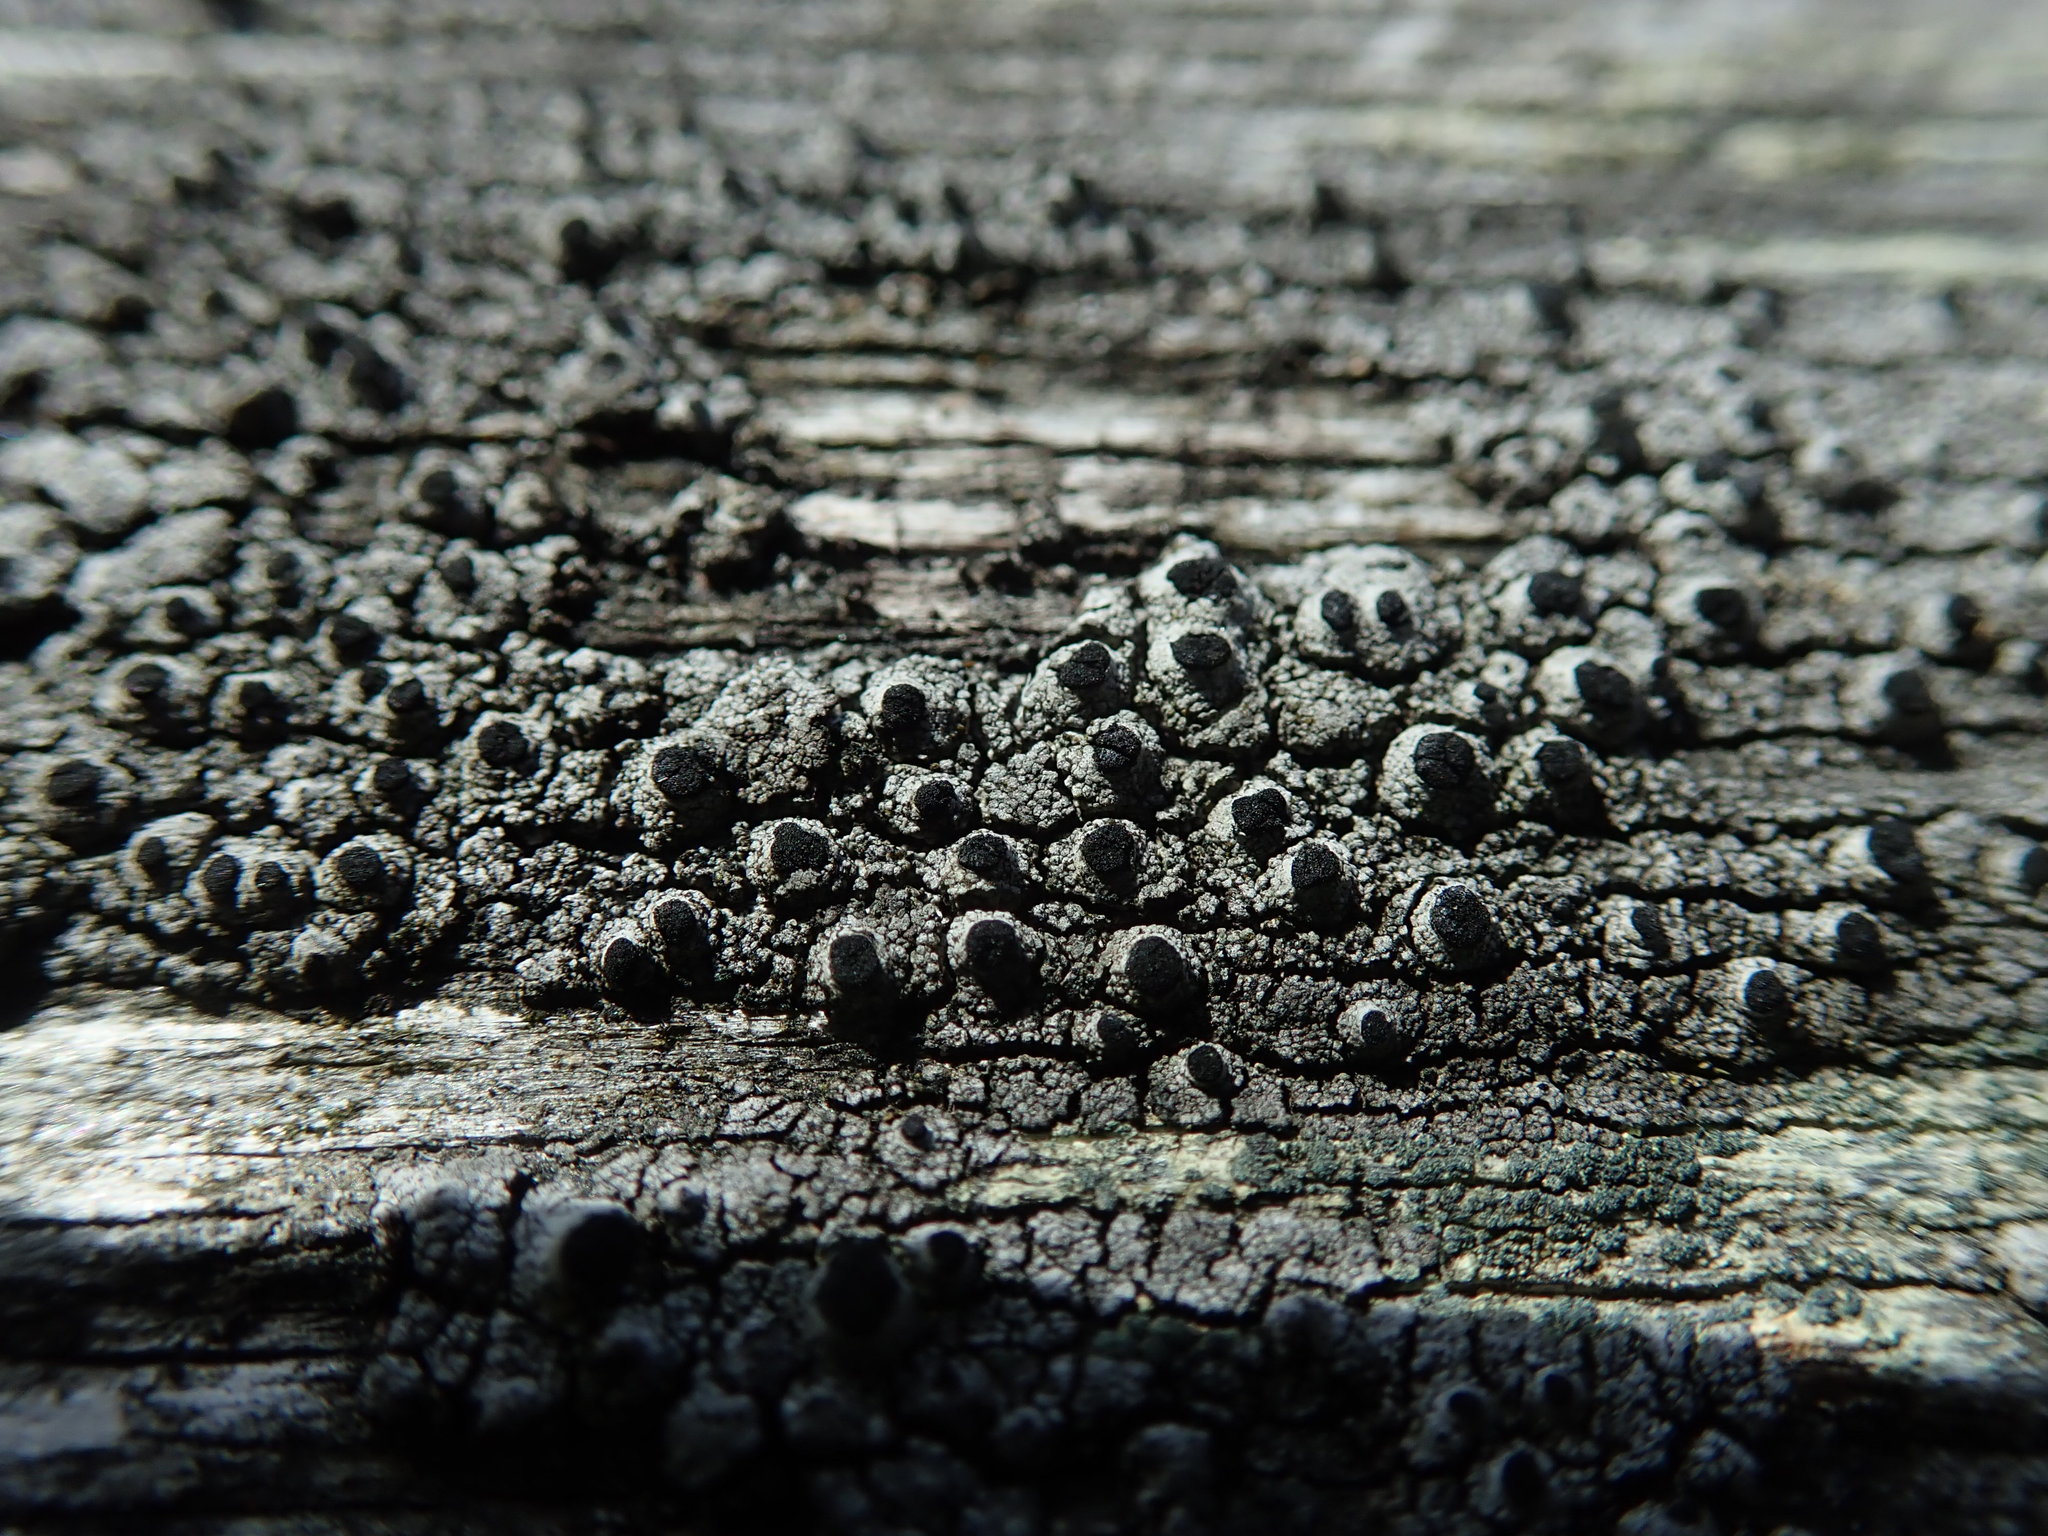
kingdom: Fungi
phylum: Ascomycota
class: Lecanoromycetes
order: Caliciales
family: Caliciaceae
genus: Pseudothelomma
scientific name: Pseudothelomma occidentale
